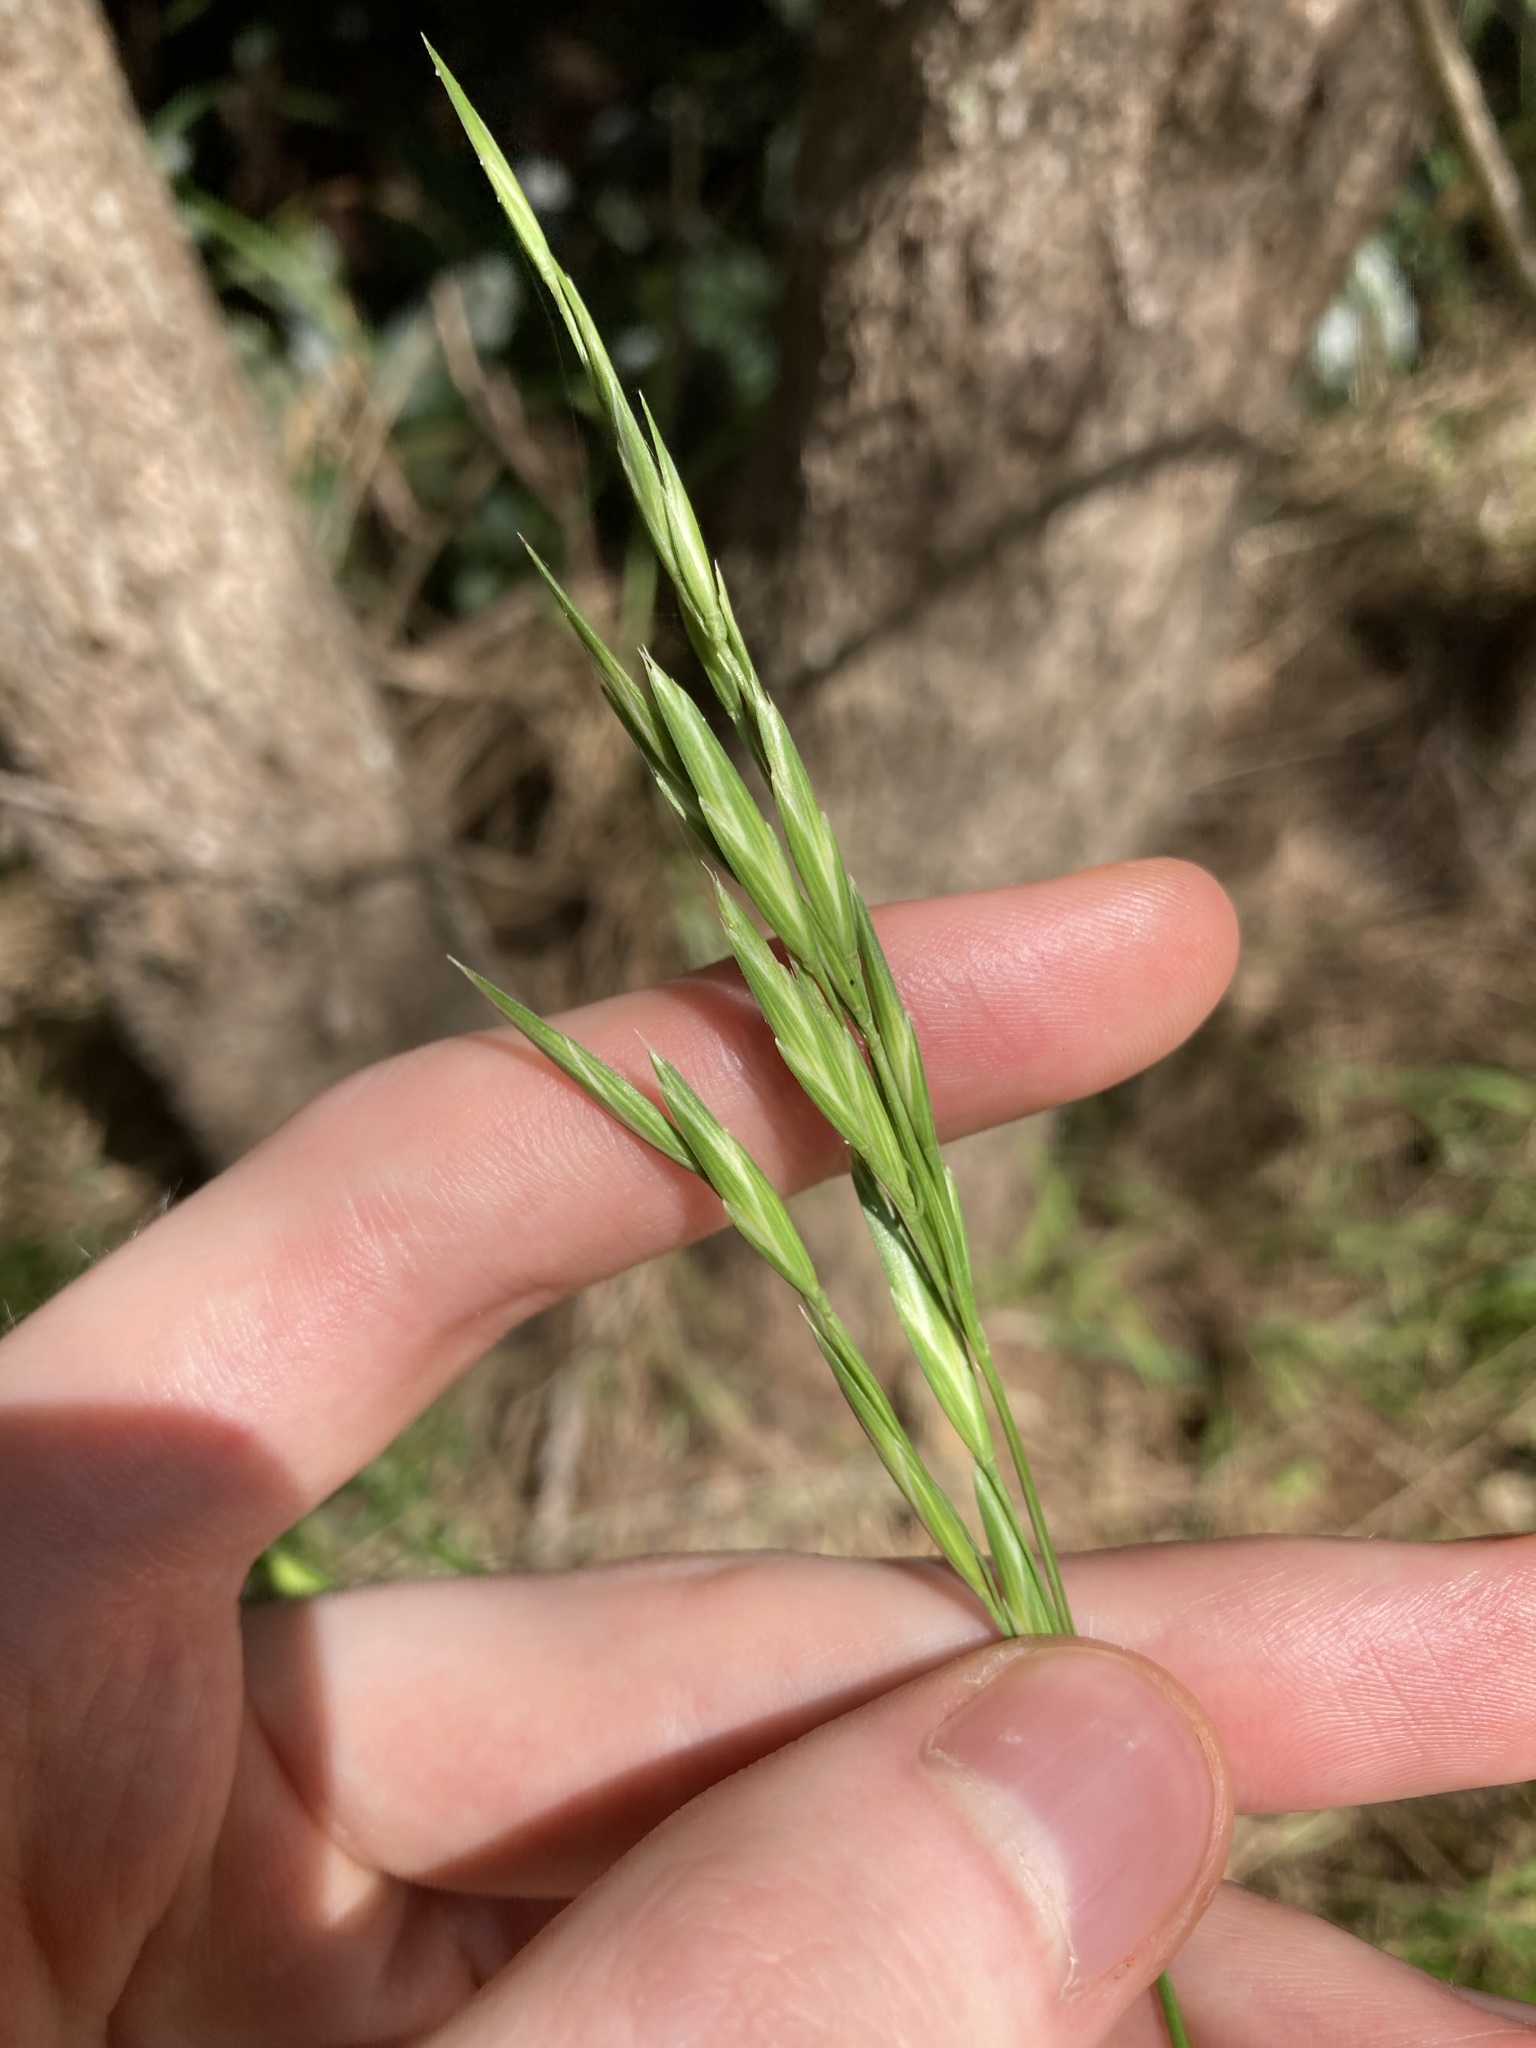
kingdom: Plantae
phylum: Tracheophyta
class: Liliopsida
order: Poales
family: Poaceae
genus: Bromus
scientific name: Bromus catharticus
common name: Rescuegrass
